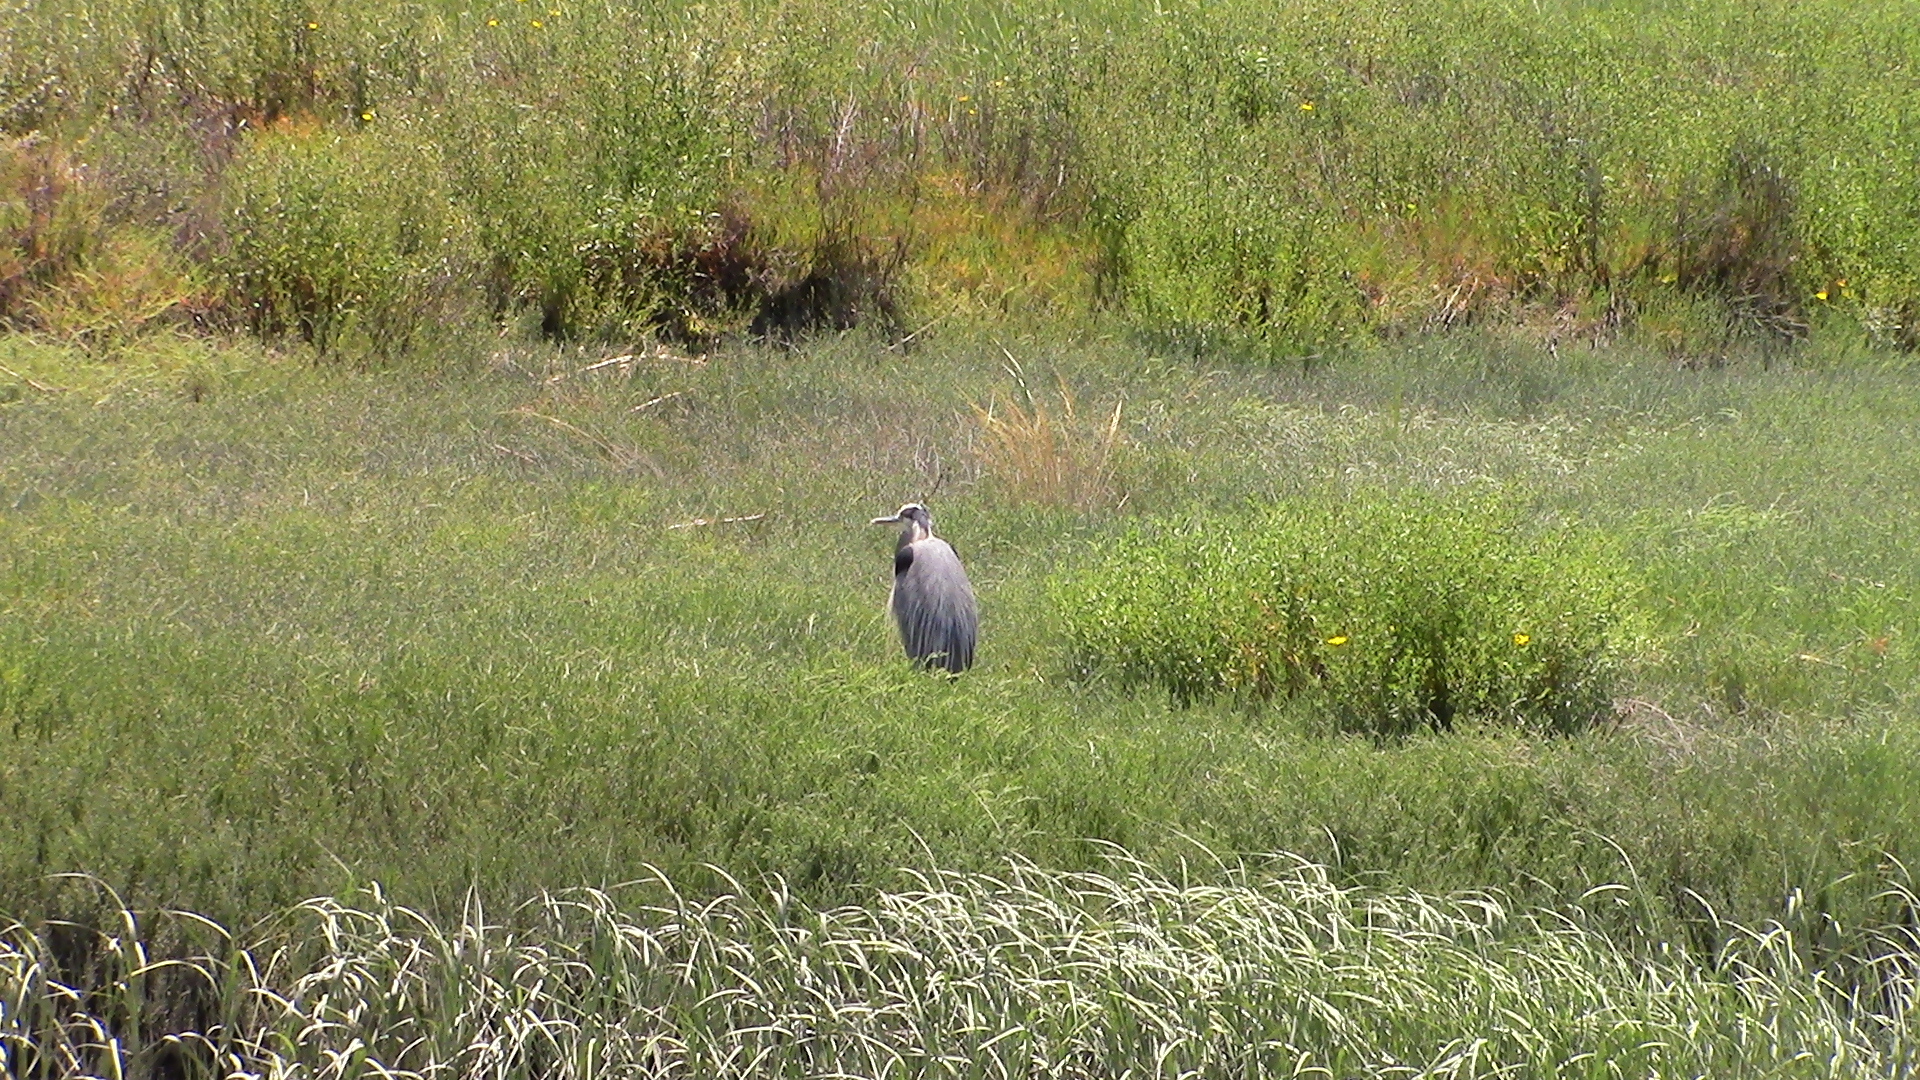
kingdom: Animalia
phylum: Chordata
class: Aves
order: Pelecaniformes
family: Ardeidae
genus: Ardea
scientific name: Ardea herodias
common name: Great blue heron
